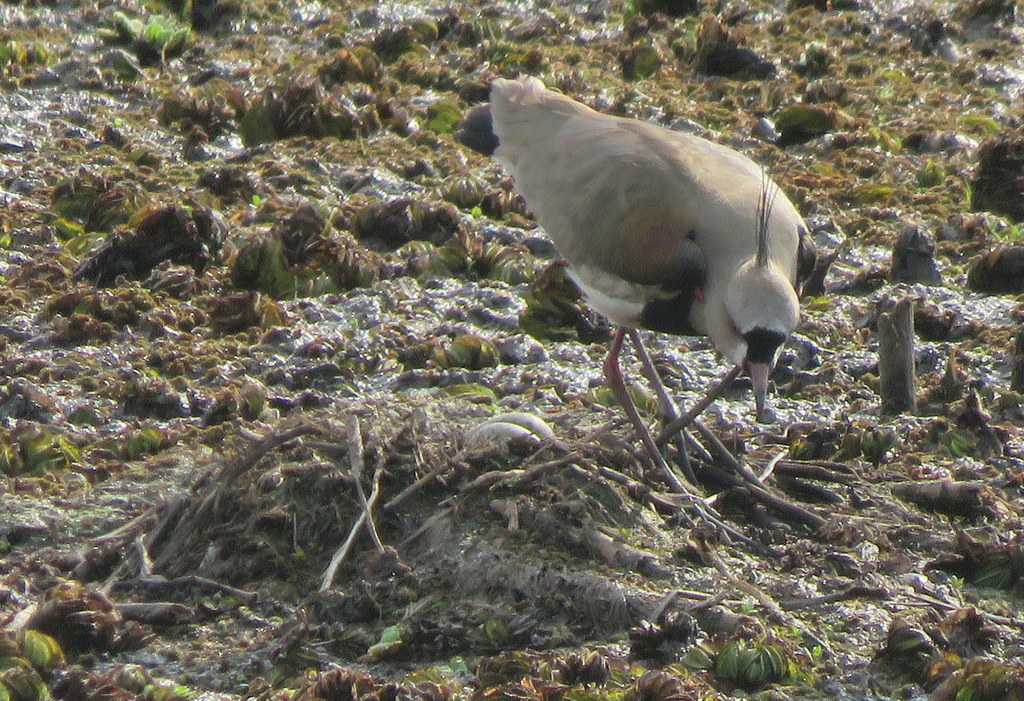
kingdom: Animalia
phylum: Chordata
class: Aves
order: Charadriiformes
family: Charadriidae
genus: Vanellus
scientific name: Vanellus chilensis
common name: Southern lapwing
